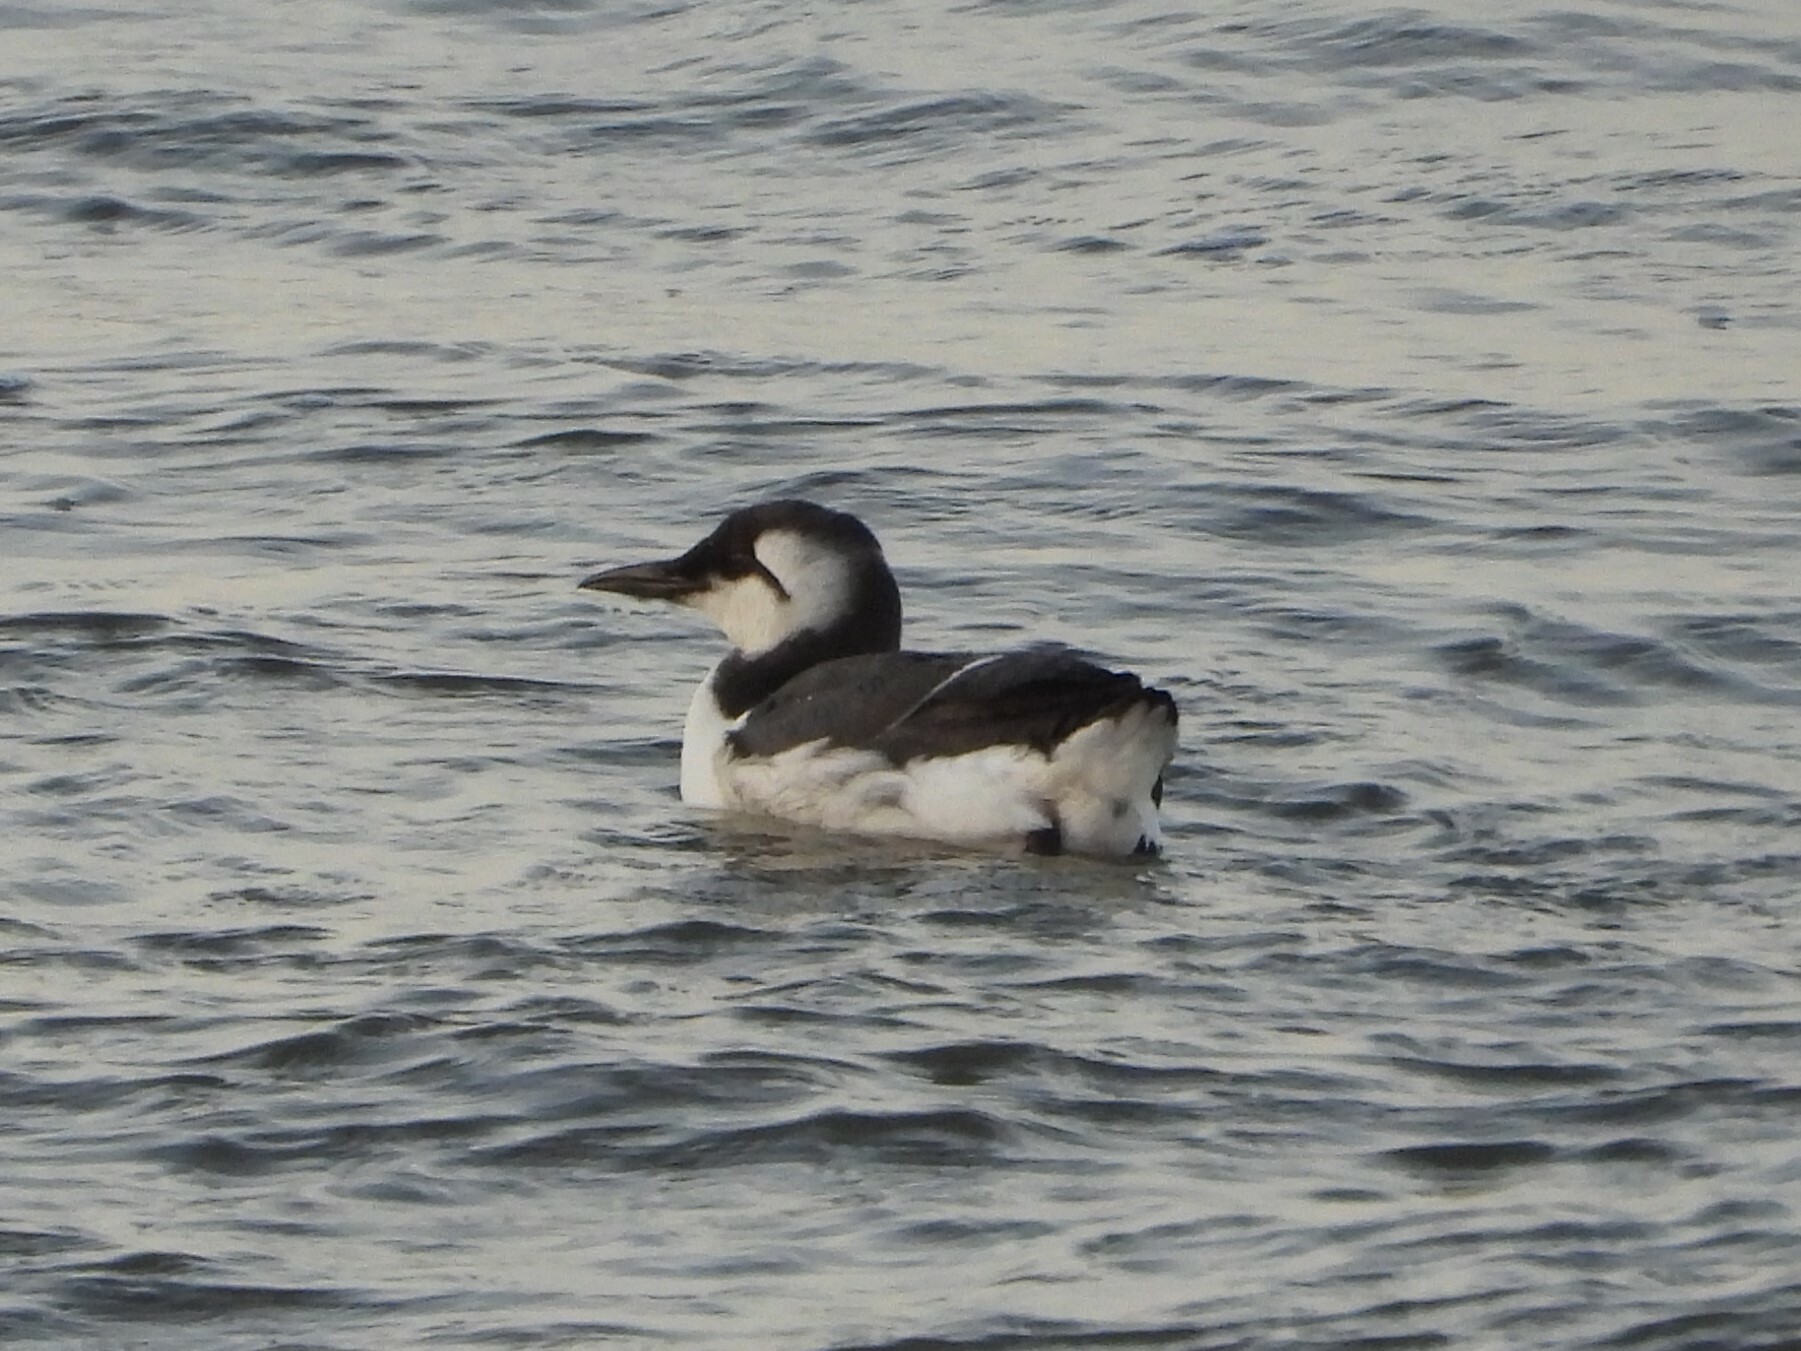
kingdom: Animalia
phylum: Chordata
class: Aves
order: Charadriiformes
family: Alcidae
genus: Uria
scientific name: Uria aalge
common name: Common murre
